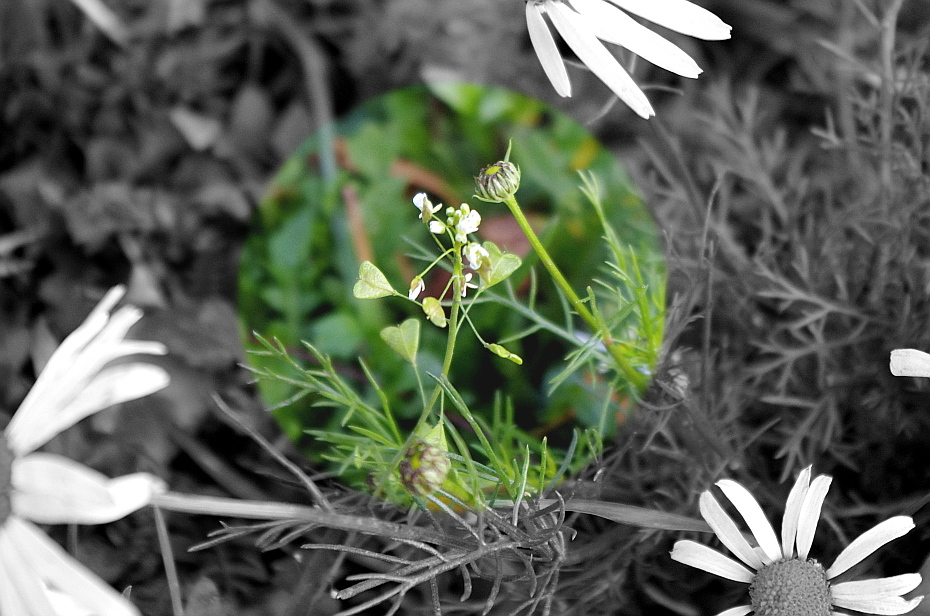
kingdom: Plantae
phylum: Tracheophyta
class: Magnoliopsida
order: Brassicales
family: Brassicaceae
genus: Capsella
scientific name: Capsella bursa-pastoris
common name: Shepherd's purse
